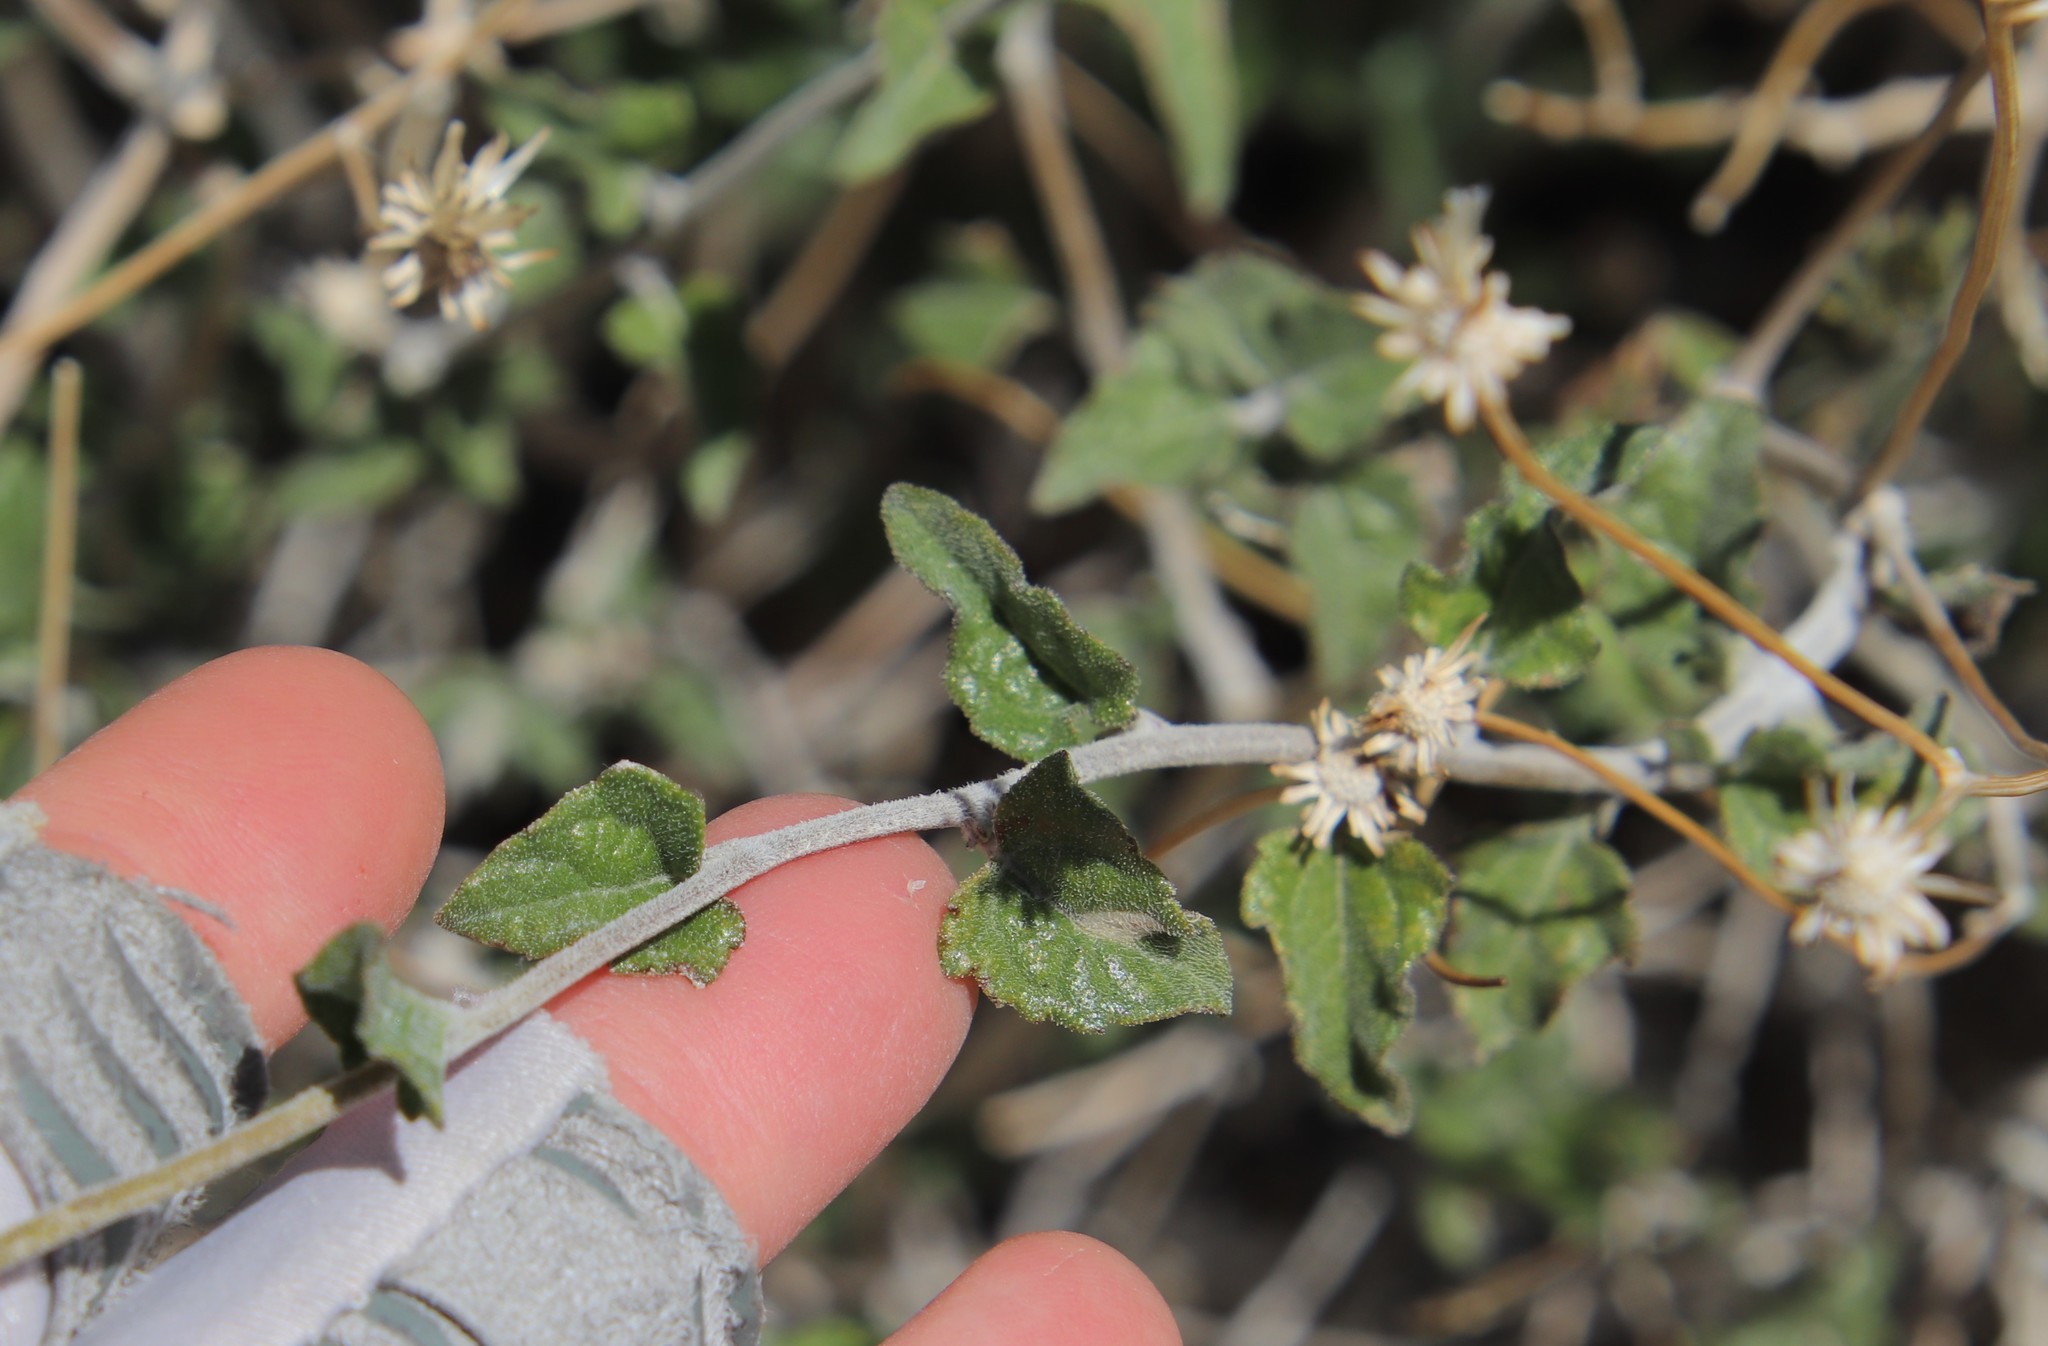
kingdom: Plantae
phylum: Tracheophyta
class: Magnoliopsida
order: Asterales
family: Asteraceae
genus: Bahiopsis
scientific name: Bahiopsis parishii
